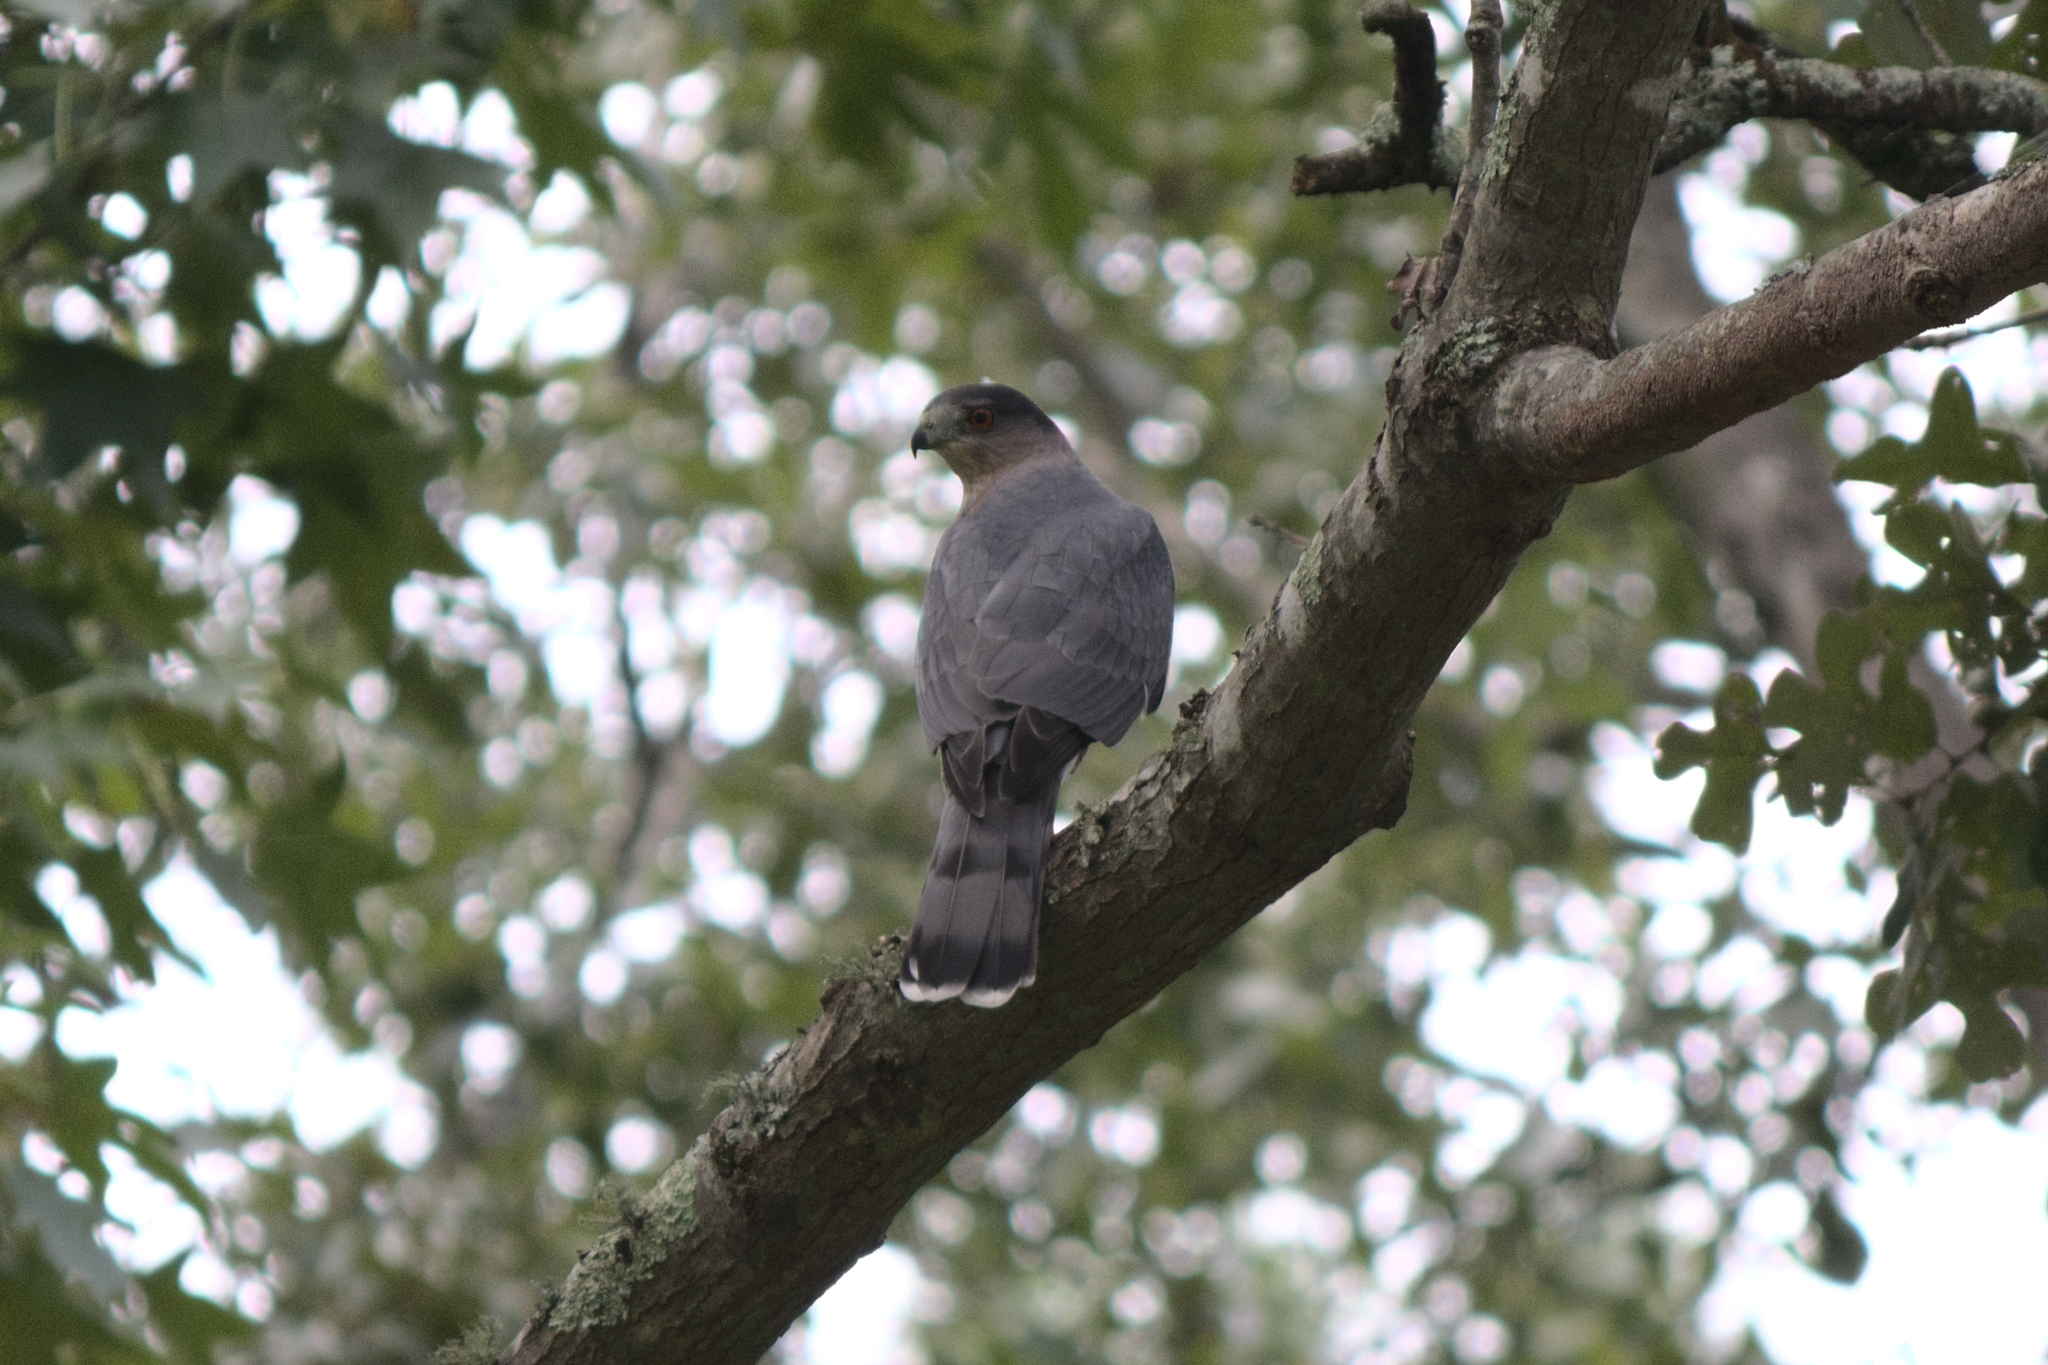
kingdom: Animalia
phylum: Chordata
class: Aves
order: Accipitriformes
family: Accipitridae
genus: Accipiter
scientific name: Accipiter cooperii
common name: Cooper's hawk
